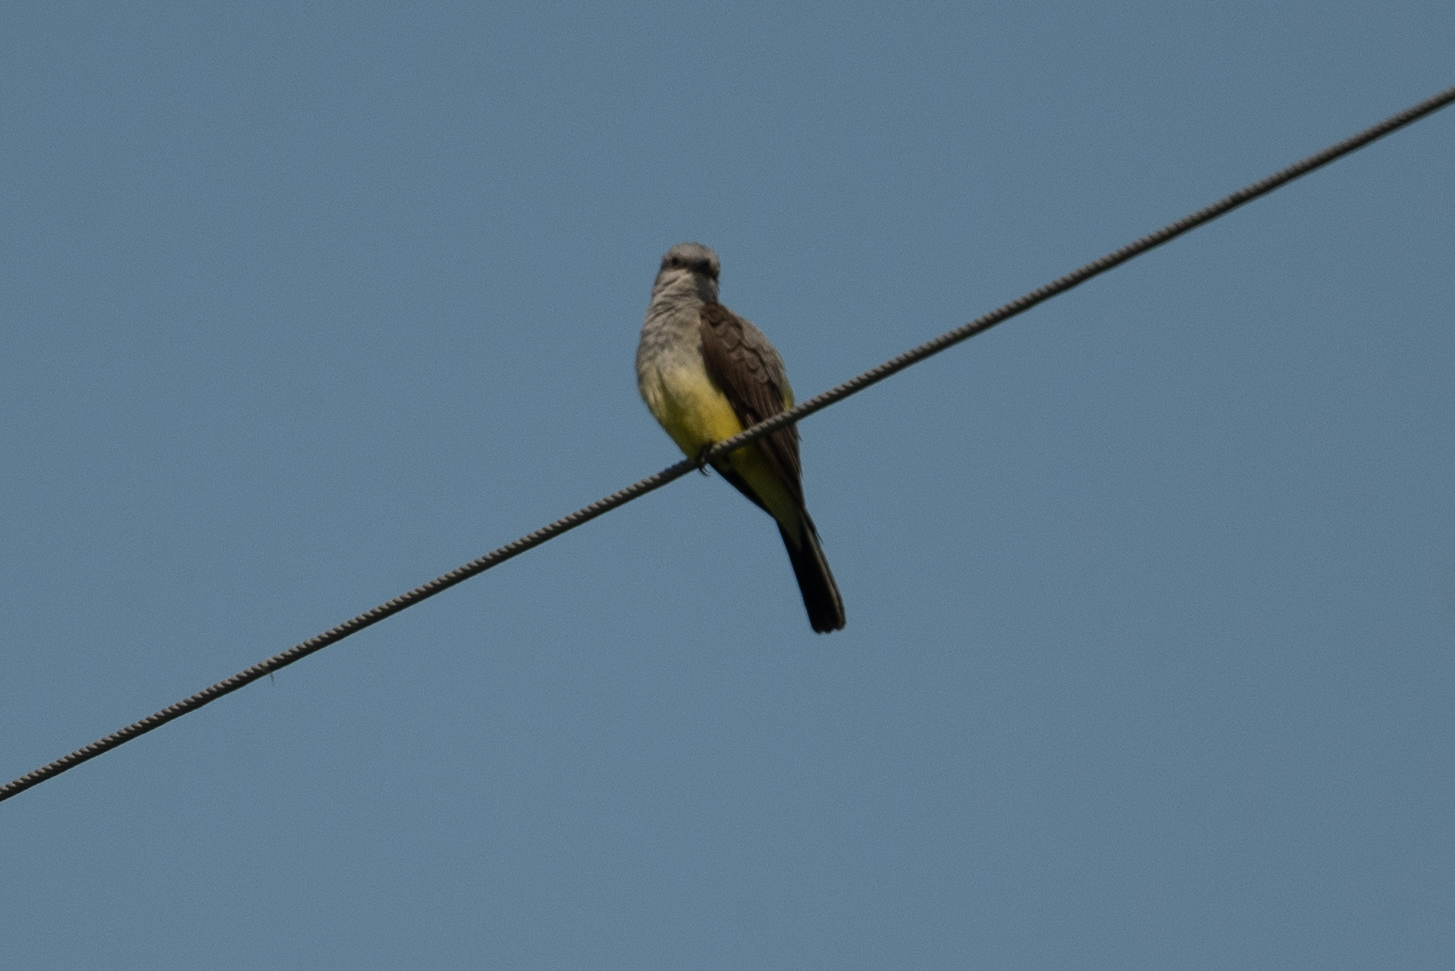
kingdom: Animalia
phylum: Chordata
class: Aves
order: Passeriformes
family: Tyrannidae
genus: Tyrannus
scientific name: Tyrannus verticalis
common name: Western kingbird
